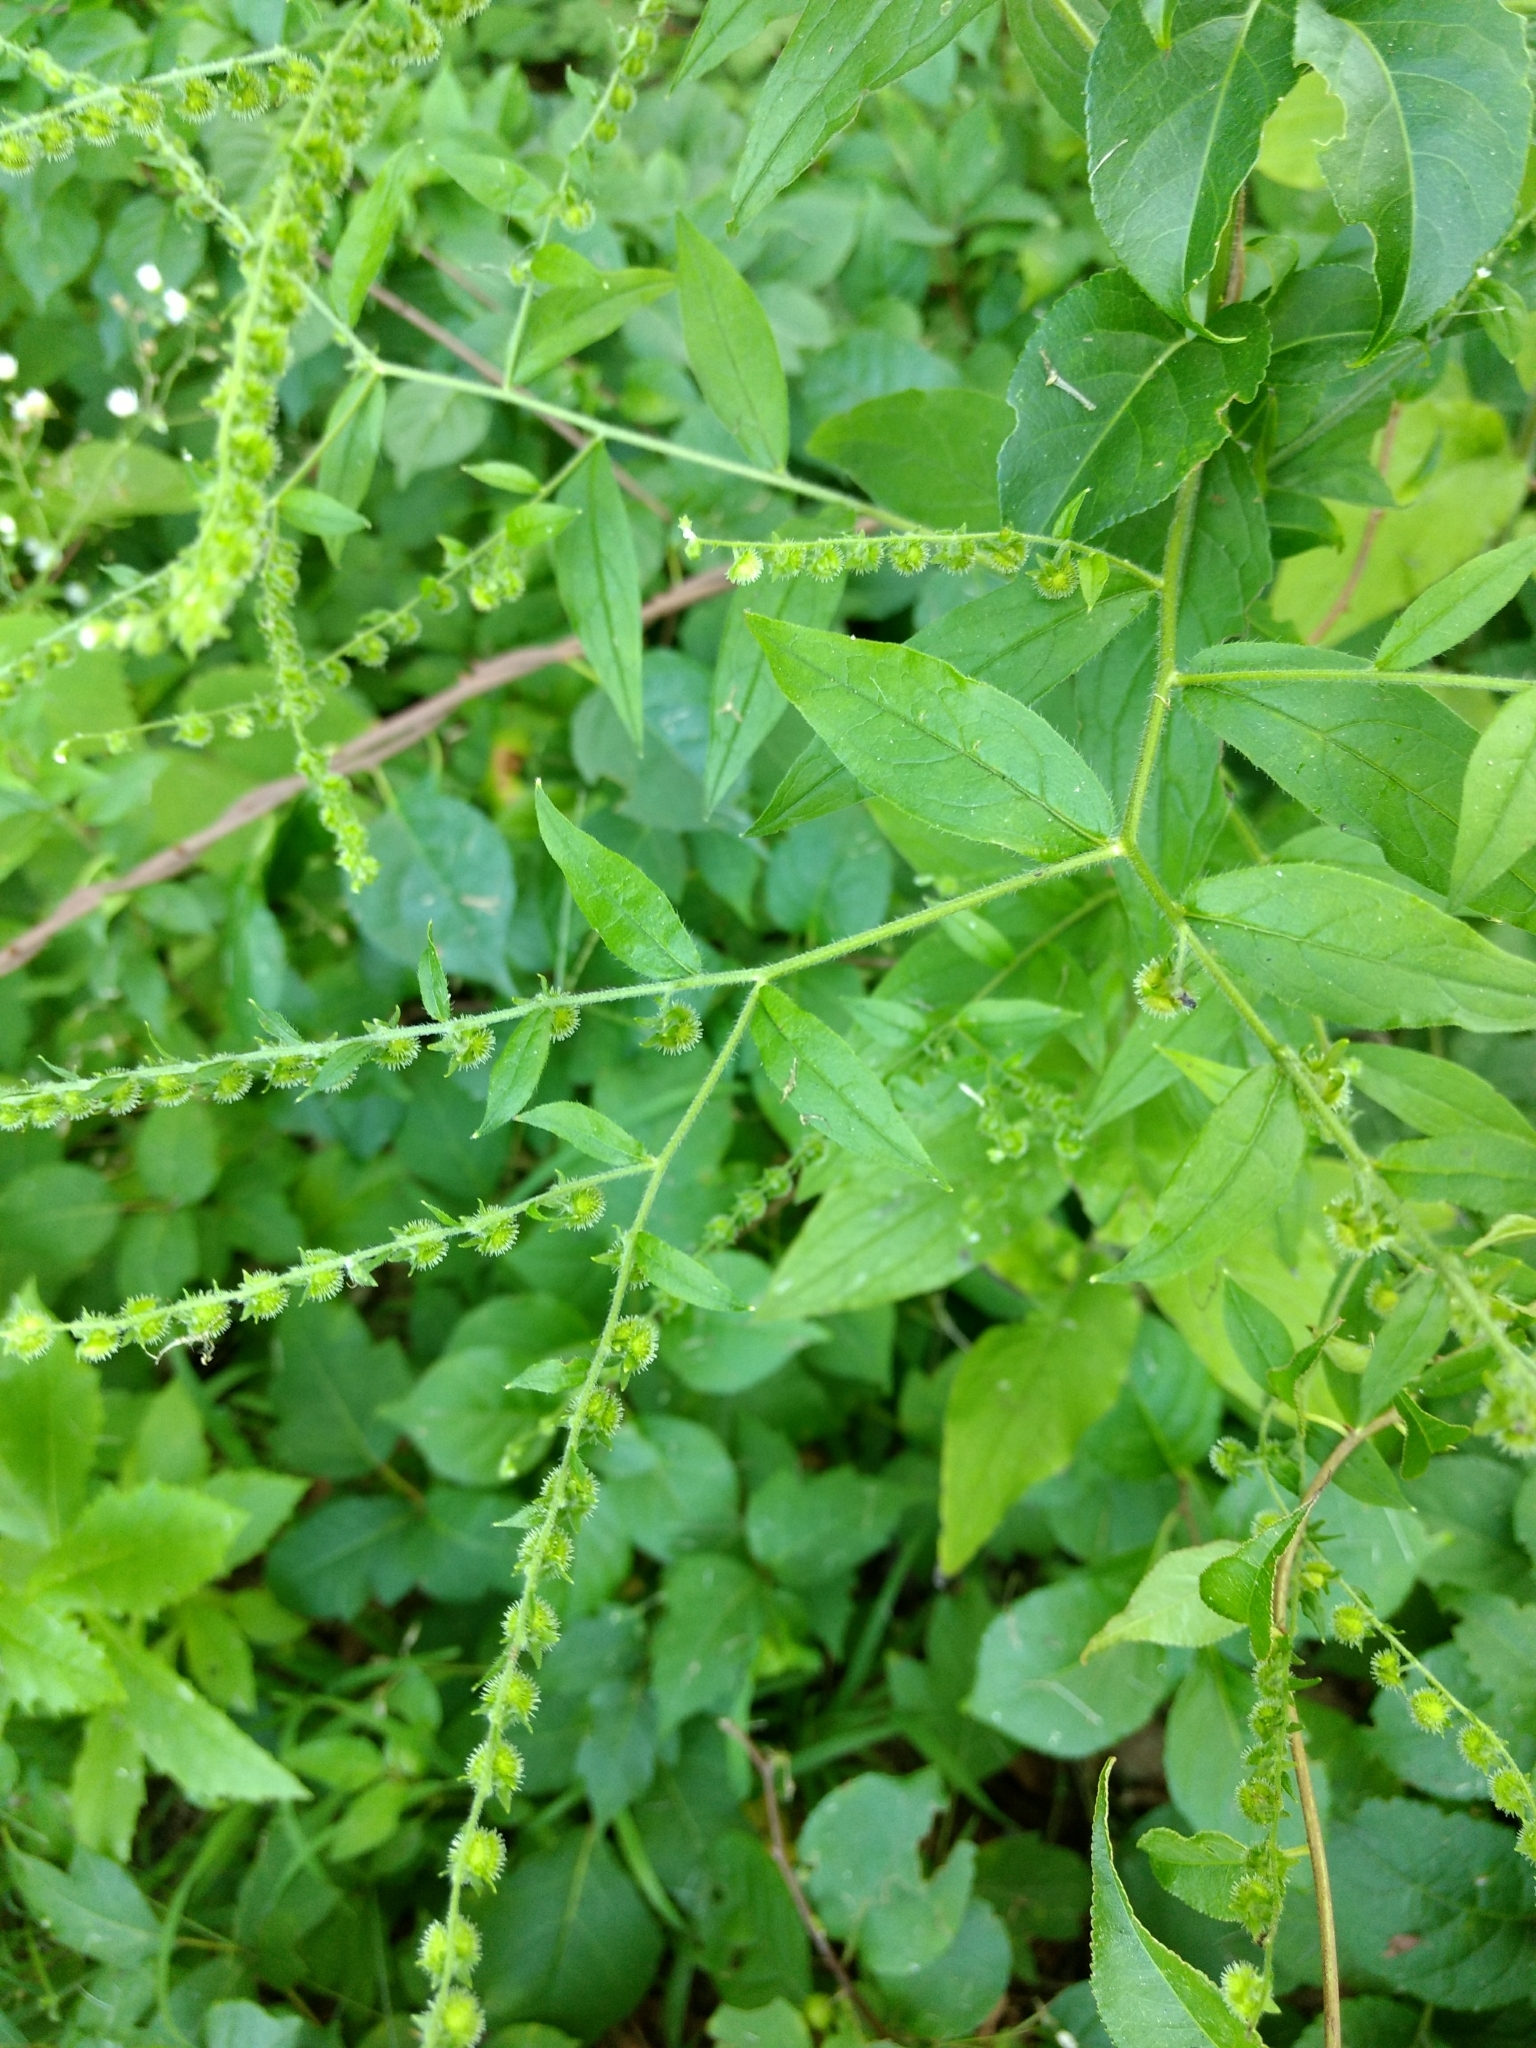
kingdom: Plantae
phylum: Tracheophyta
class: Magnoliopsida
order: Boraginales
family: Boraginaceae
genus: Hackelia
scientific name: Hackelia virginiana
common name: Beggar's-lice
